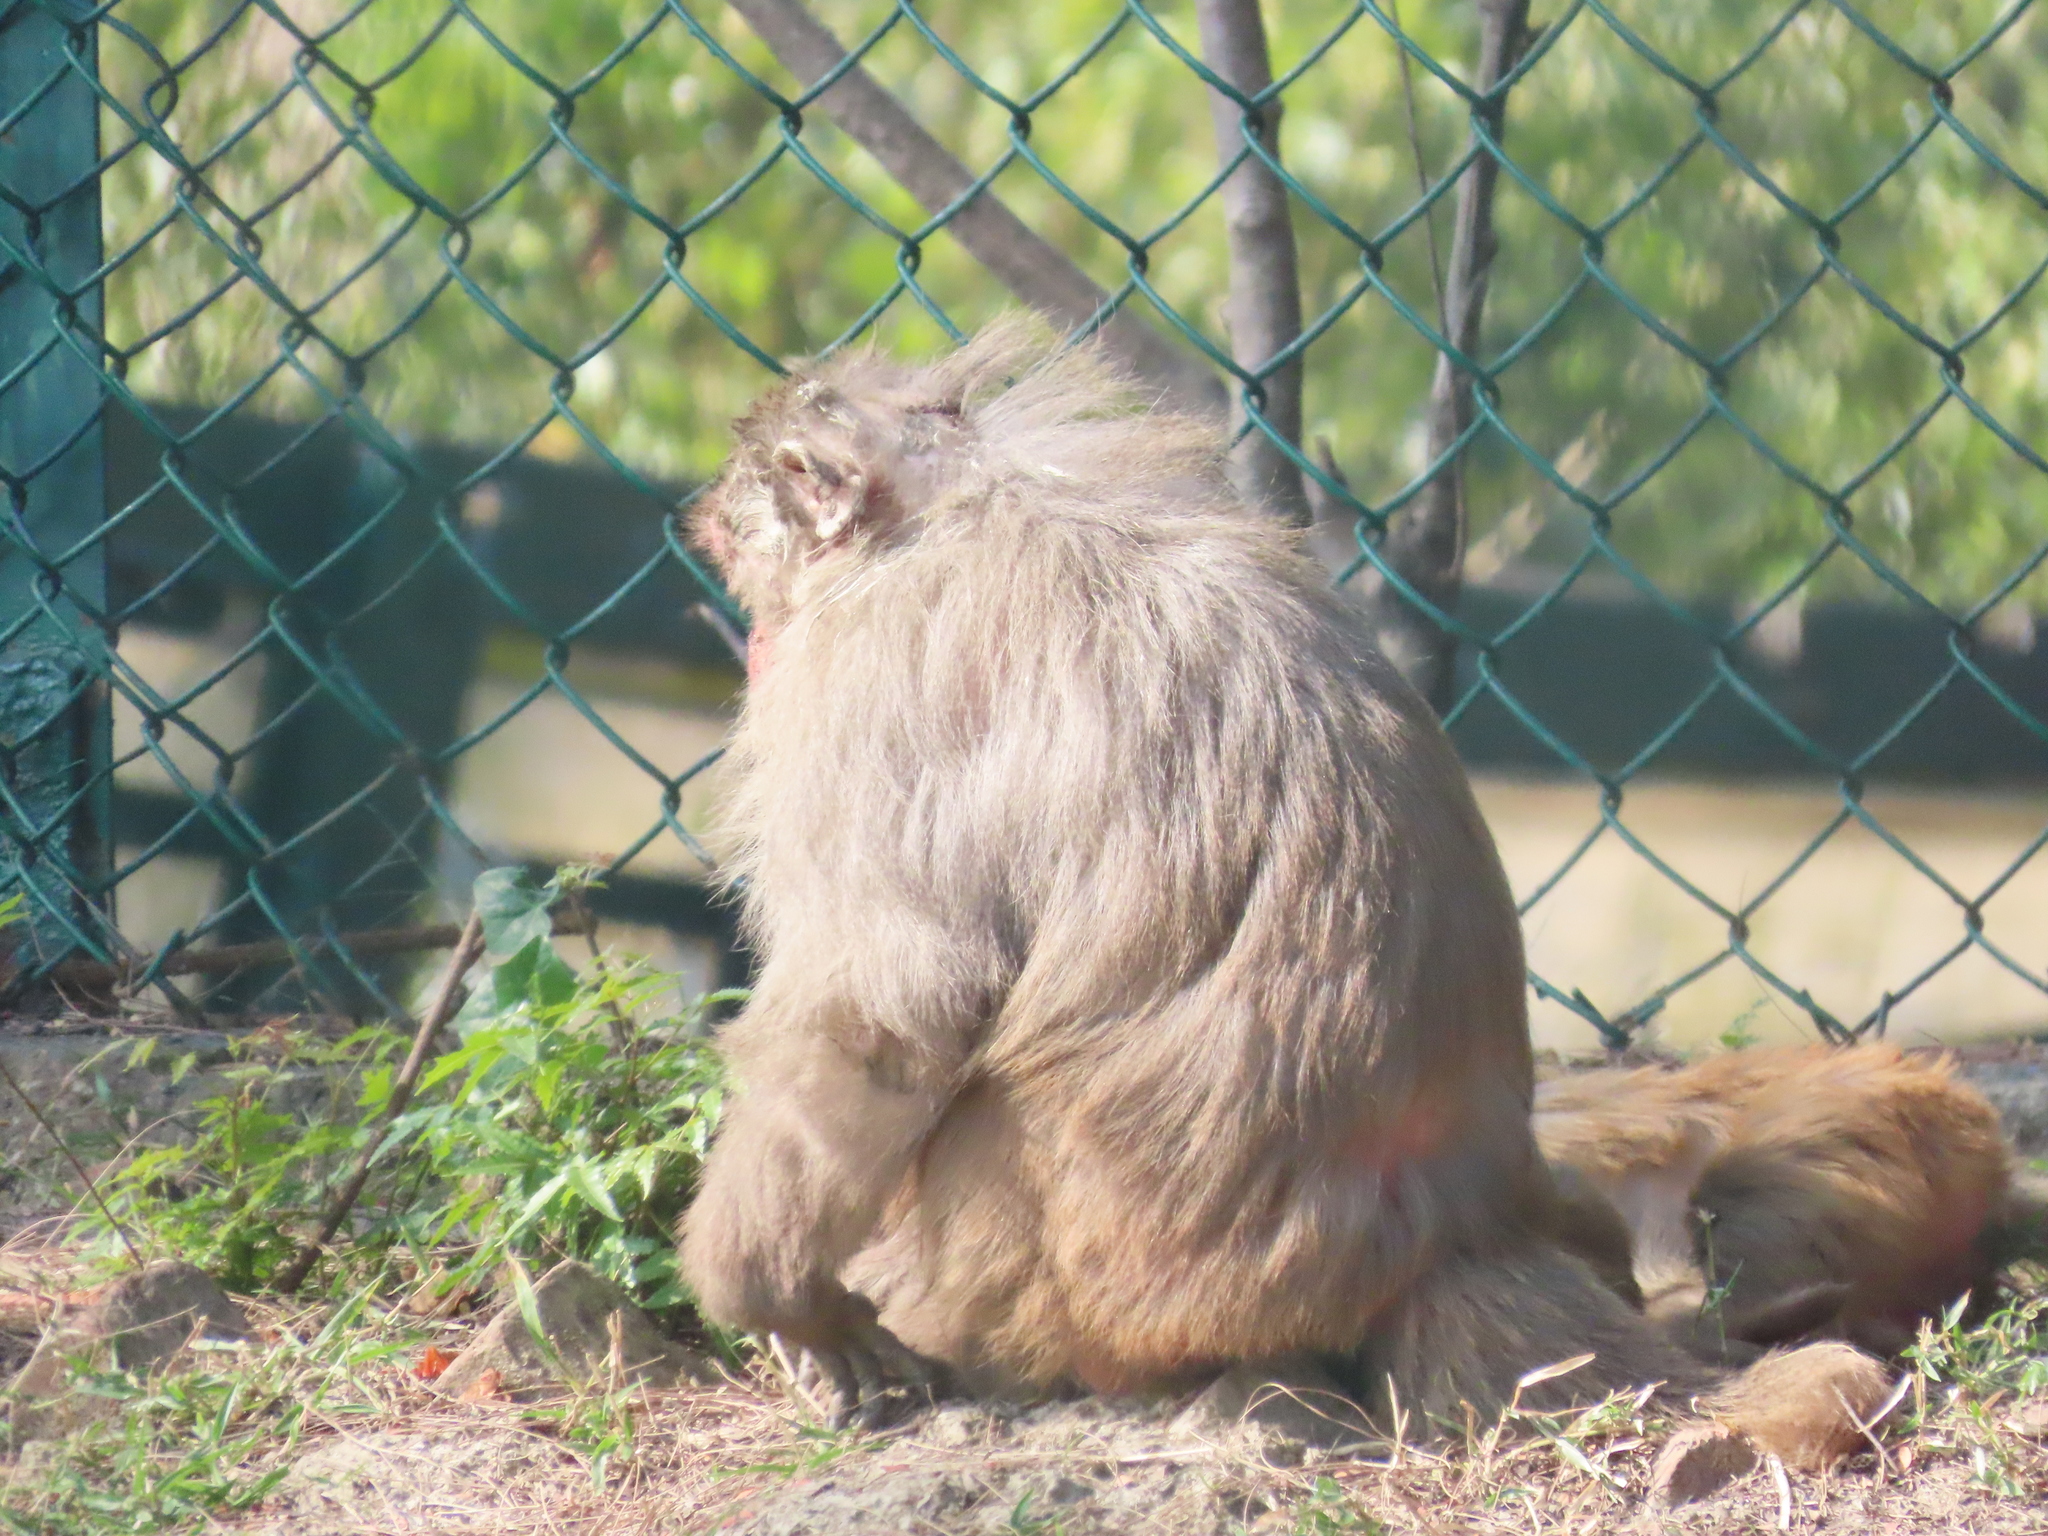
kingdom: Animalia
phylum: Chordata
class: Mammalia
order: Primates
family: Cercopithecidae
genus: Macaca
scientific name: Macaca mulatta
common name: Rhesus monkey
